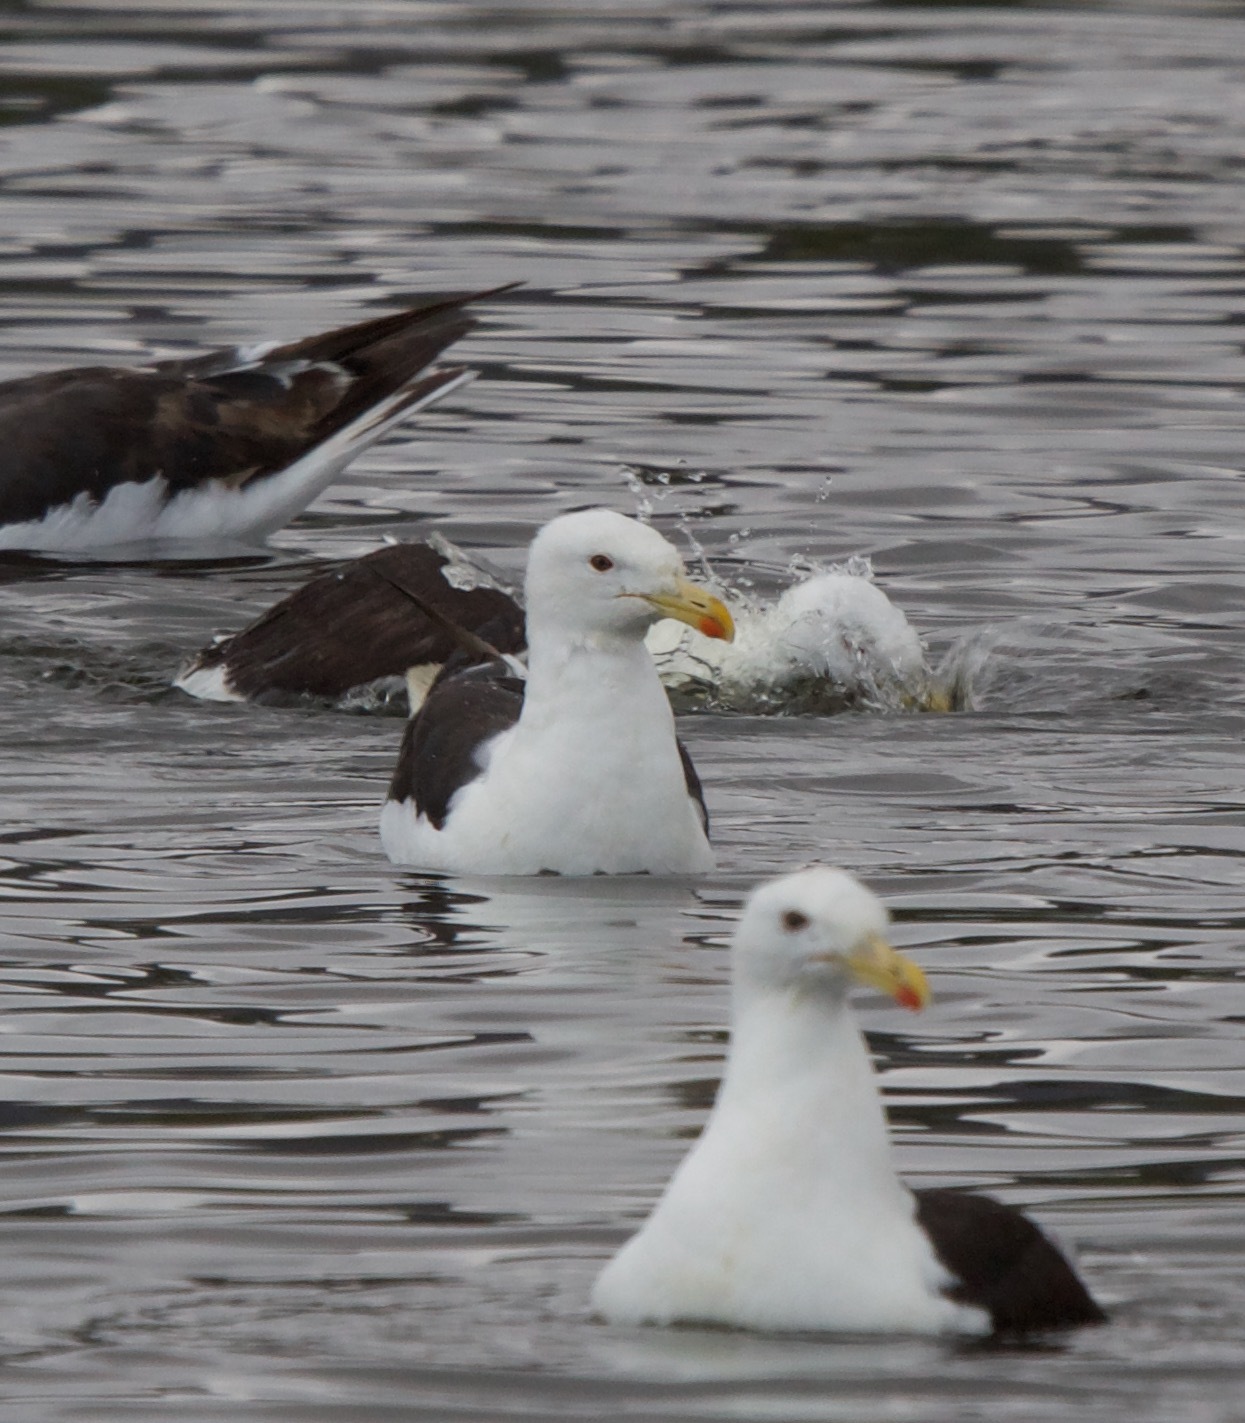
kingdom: Animalia
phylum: Chordata
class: Aves
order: Charadriiformes
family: Laridae
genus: Larus
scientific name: Larus dominicanus
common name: Kelp gull
